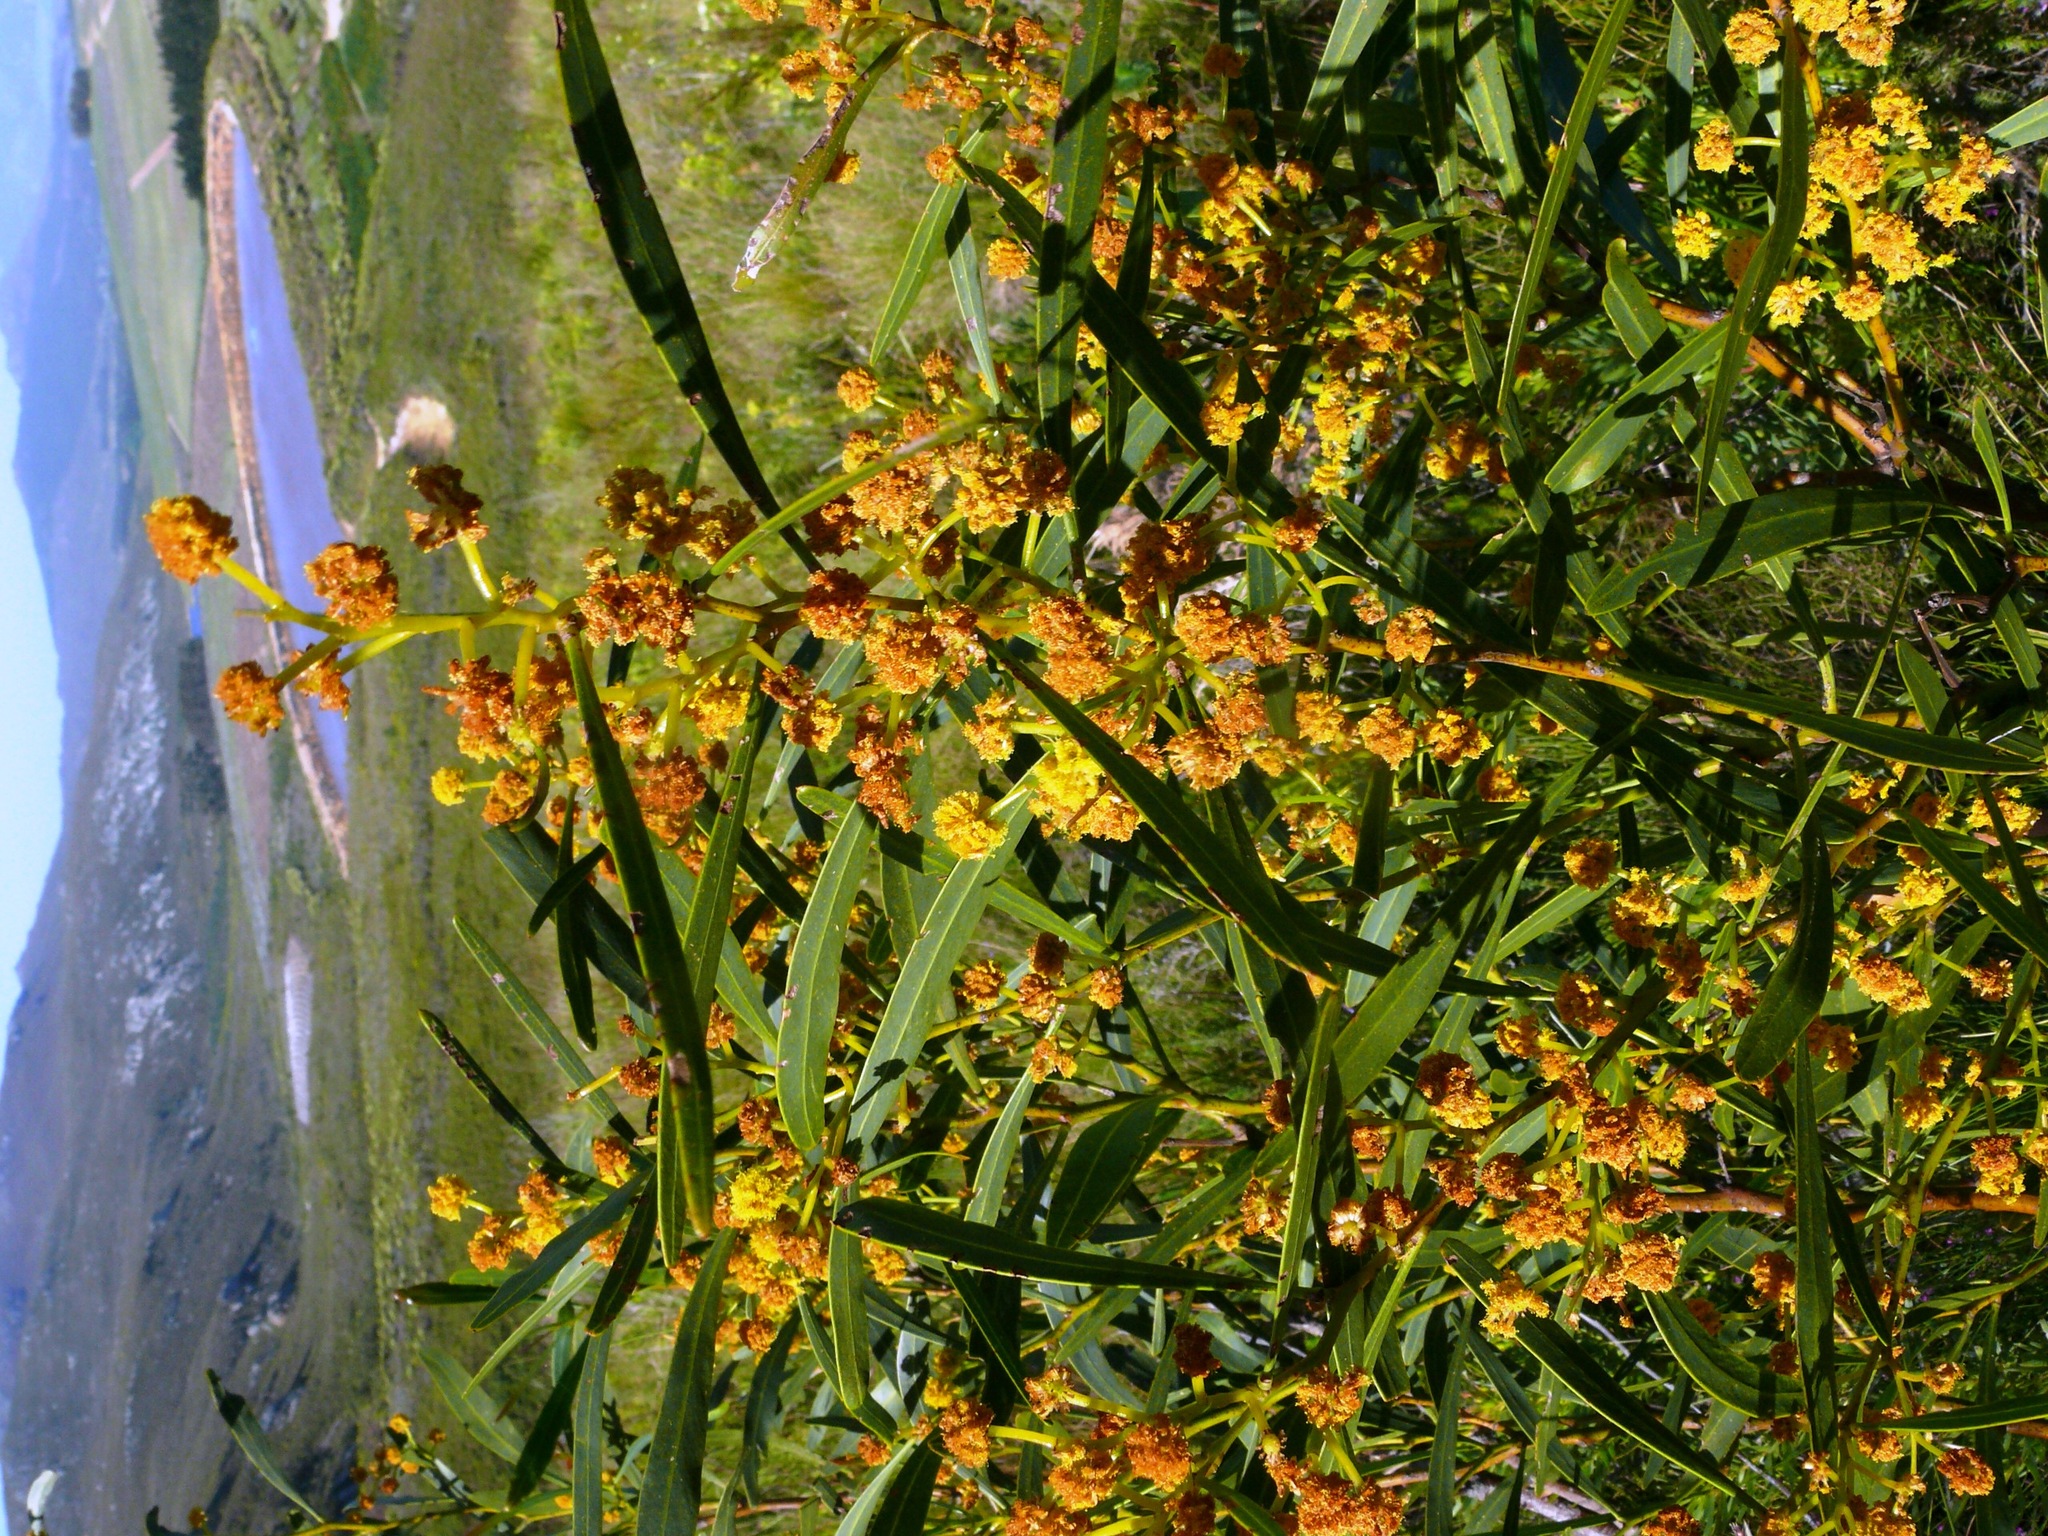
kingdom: Plantae
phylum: Tracheophyta
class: Magnoliopsida
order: Fabales
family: Fabaceae
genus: Acacia
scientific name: Acacia saligna
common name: Orange wattle
